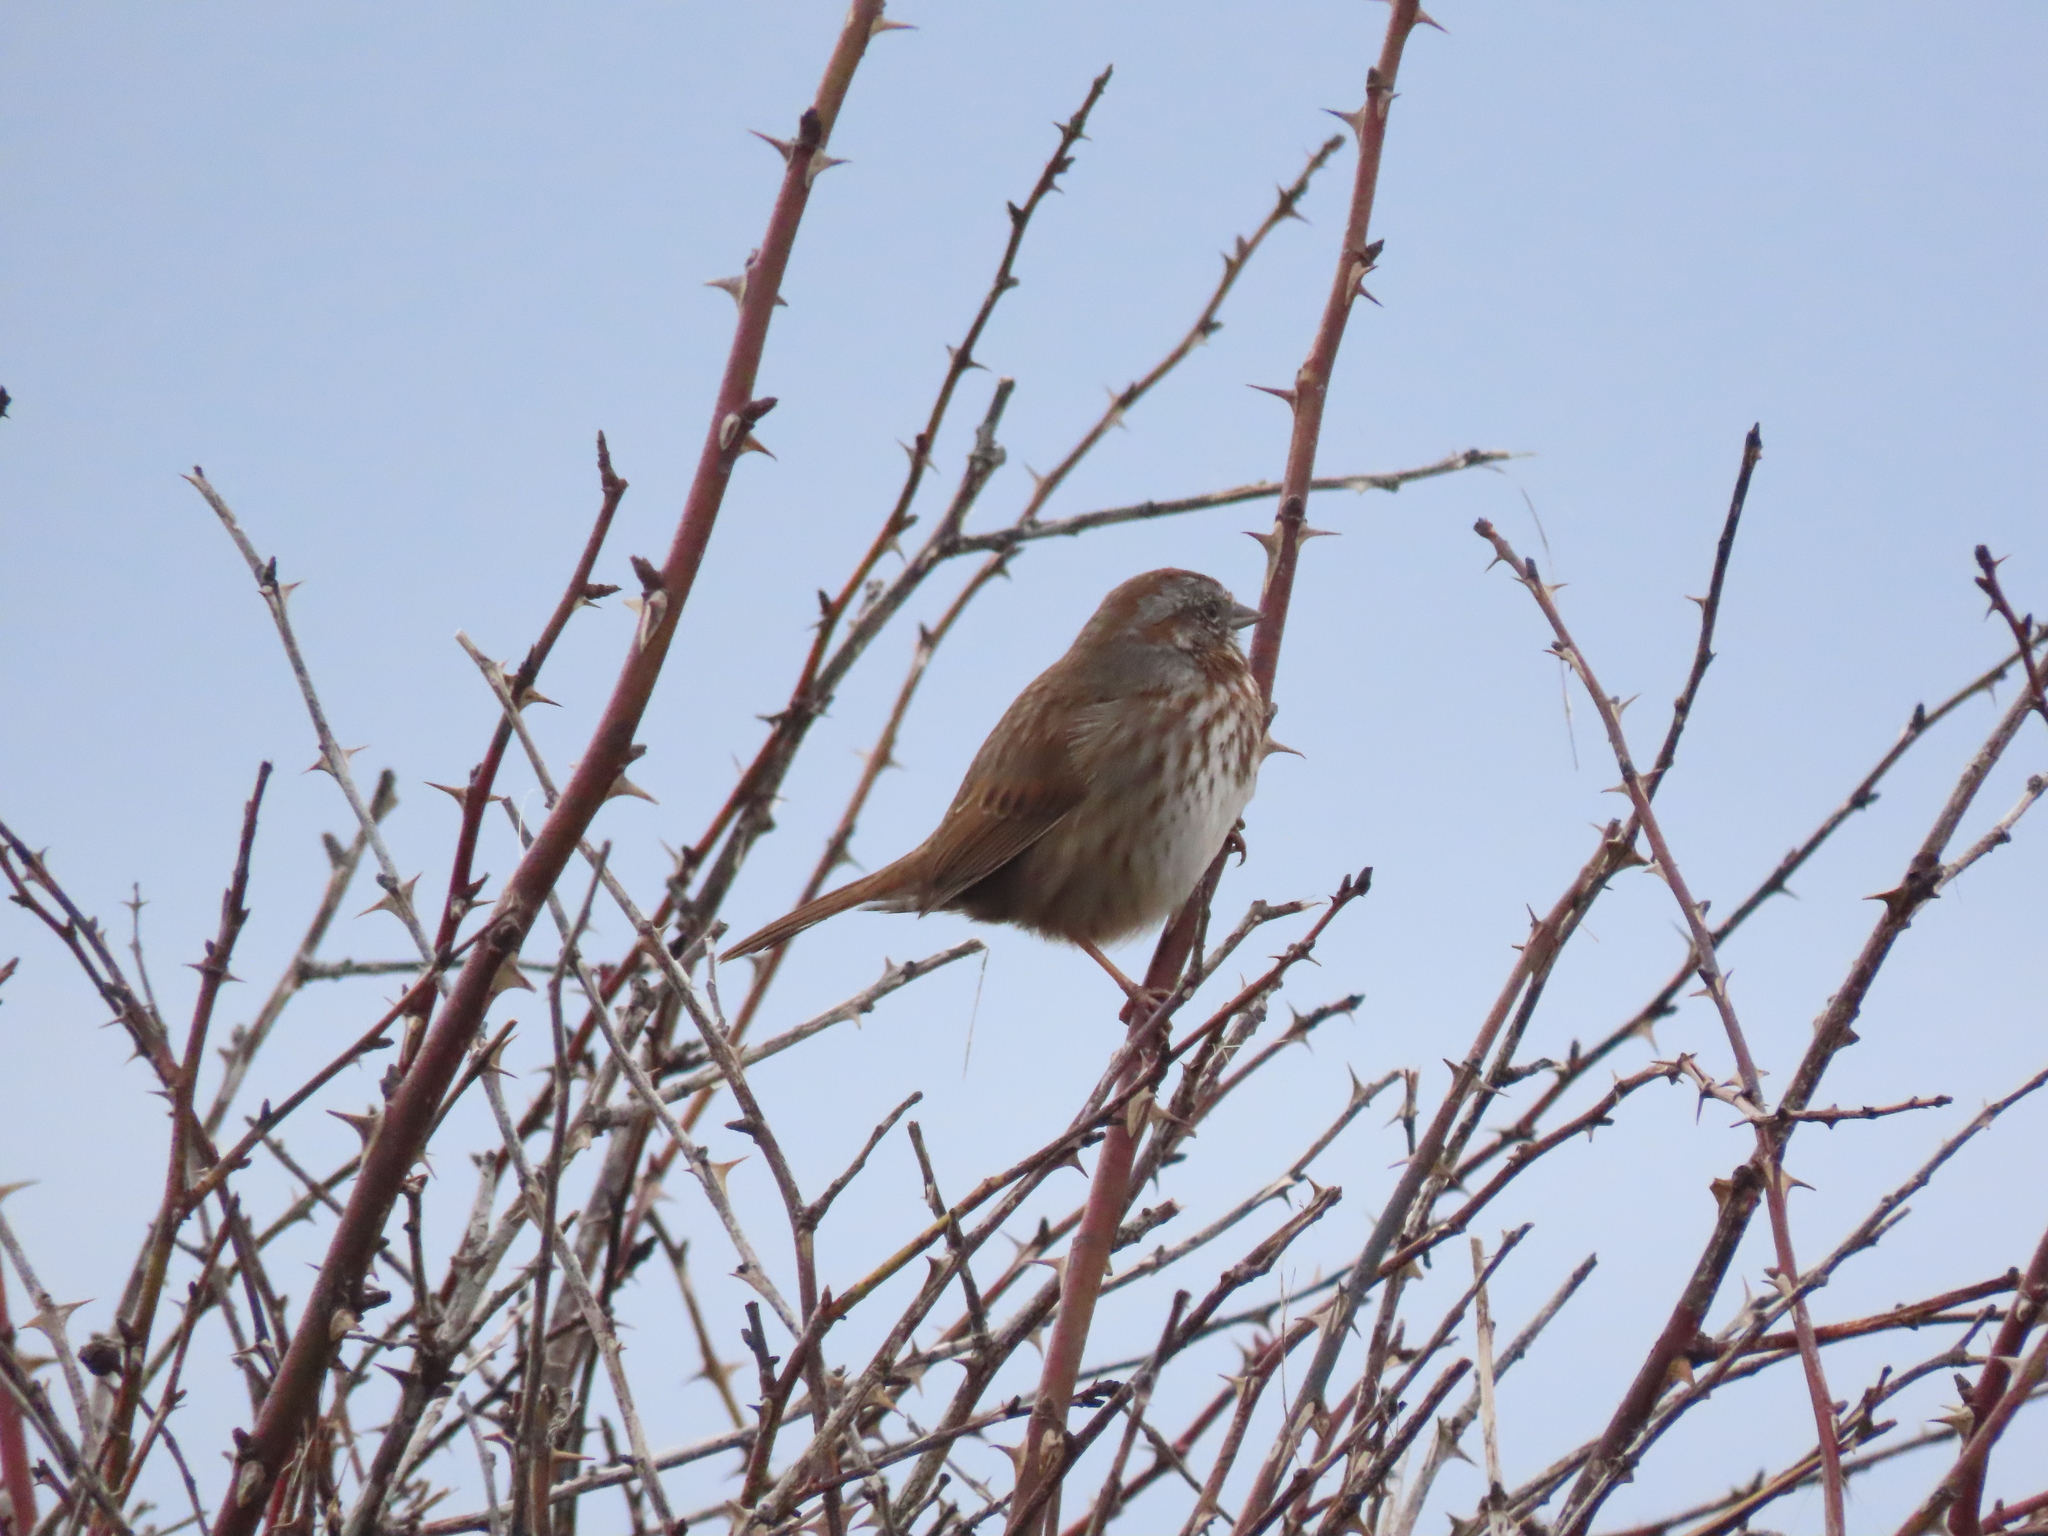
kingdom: Animalia
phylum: Chordata
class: Aves
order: Passeriformes
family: Passerellidae
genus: Melospiza
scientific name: Melospiza melodia
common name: Song sparrow
